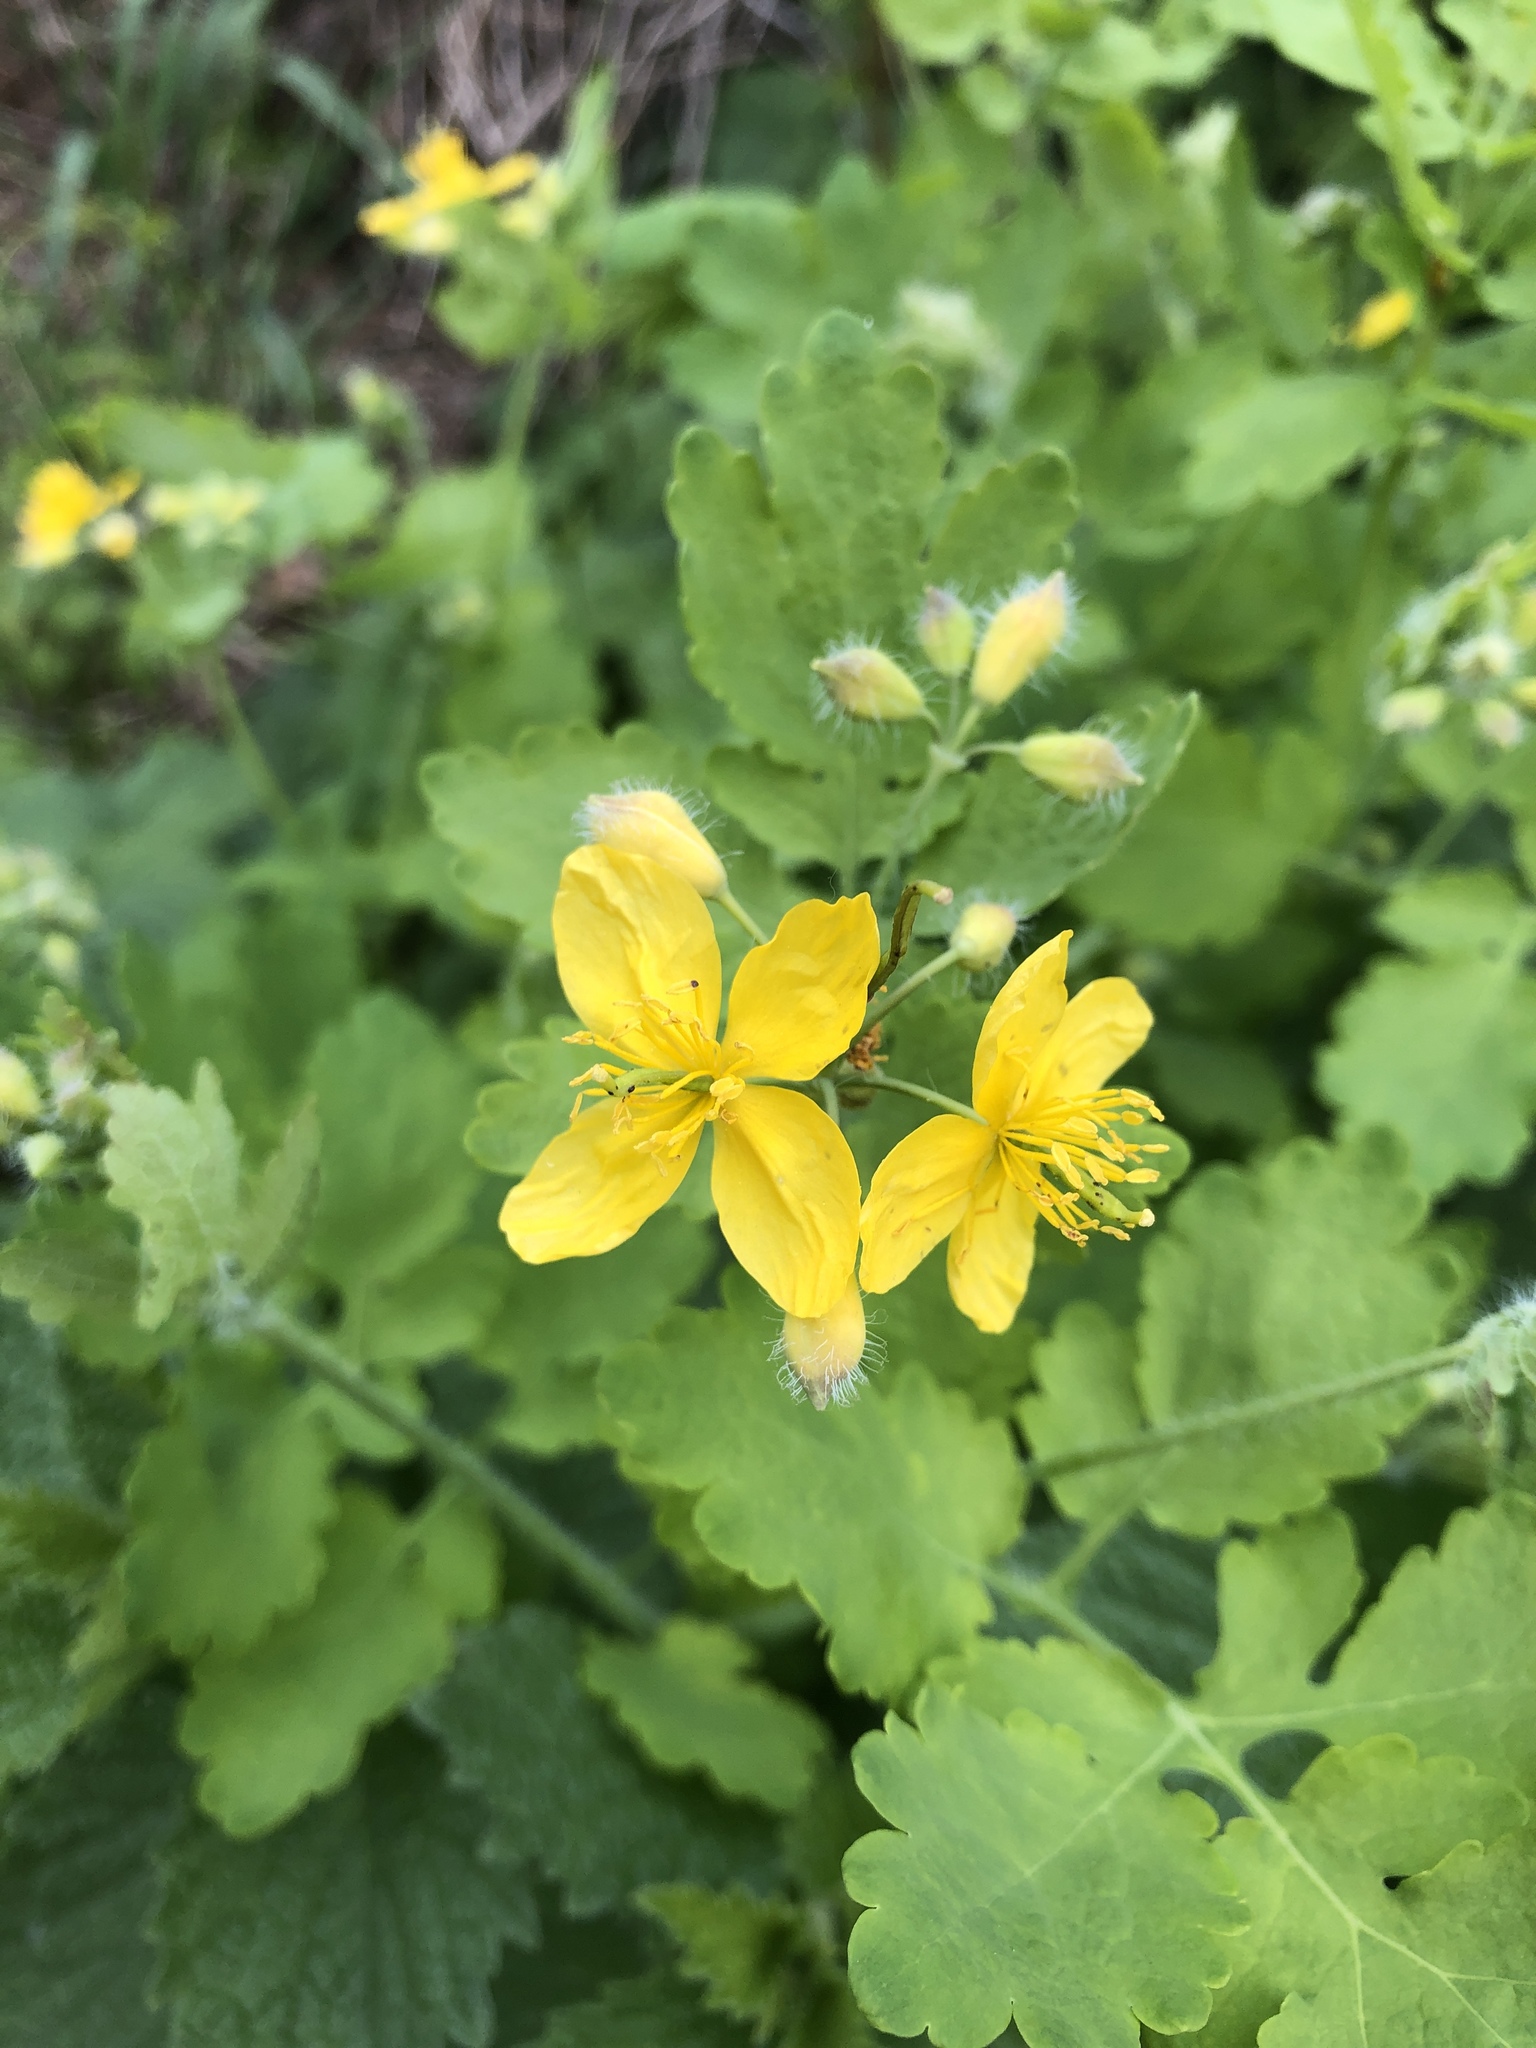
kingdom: Plantae
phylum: Tracheophyta
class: Magnoliopsida
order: Ranunculales
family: Papaveraceae
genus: Chelidonium
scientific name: Chelidonium majus
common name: Greater celandine
